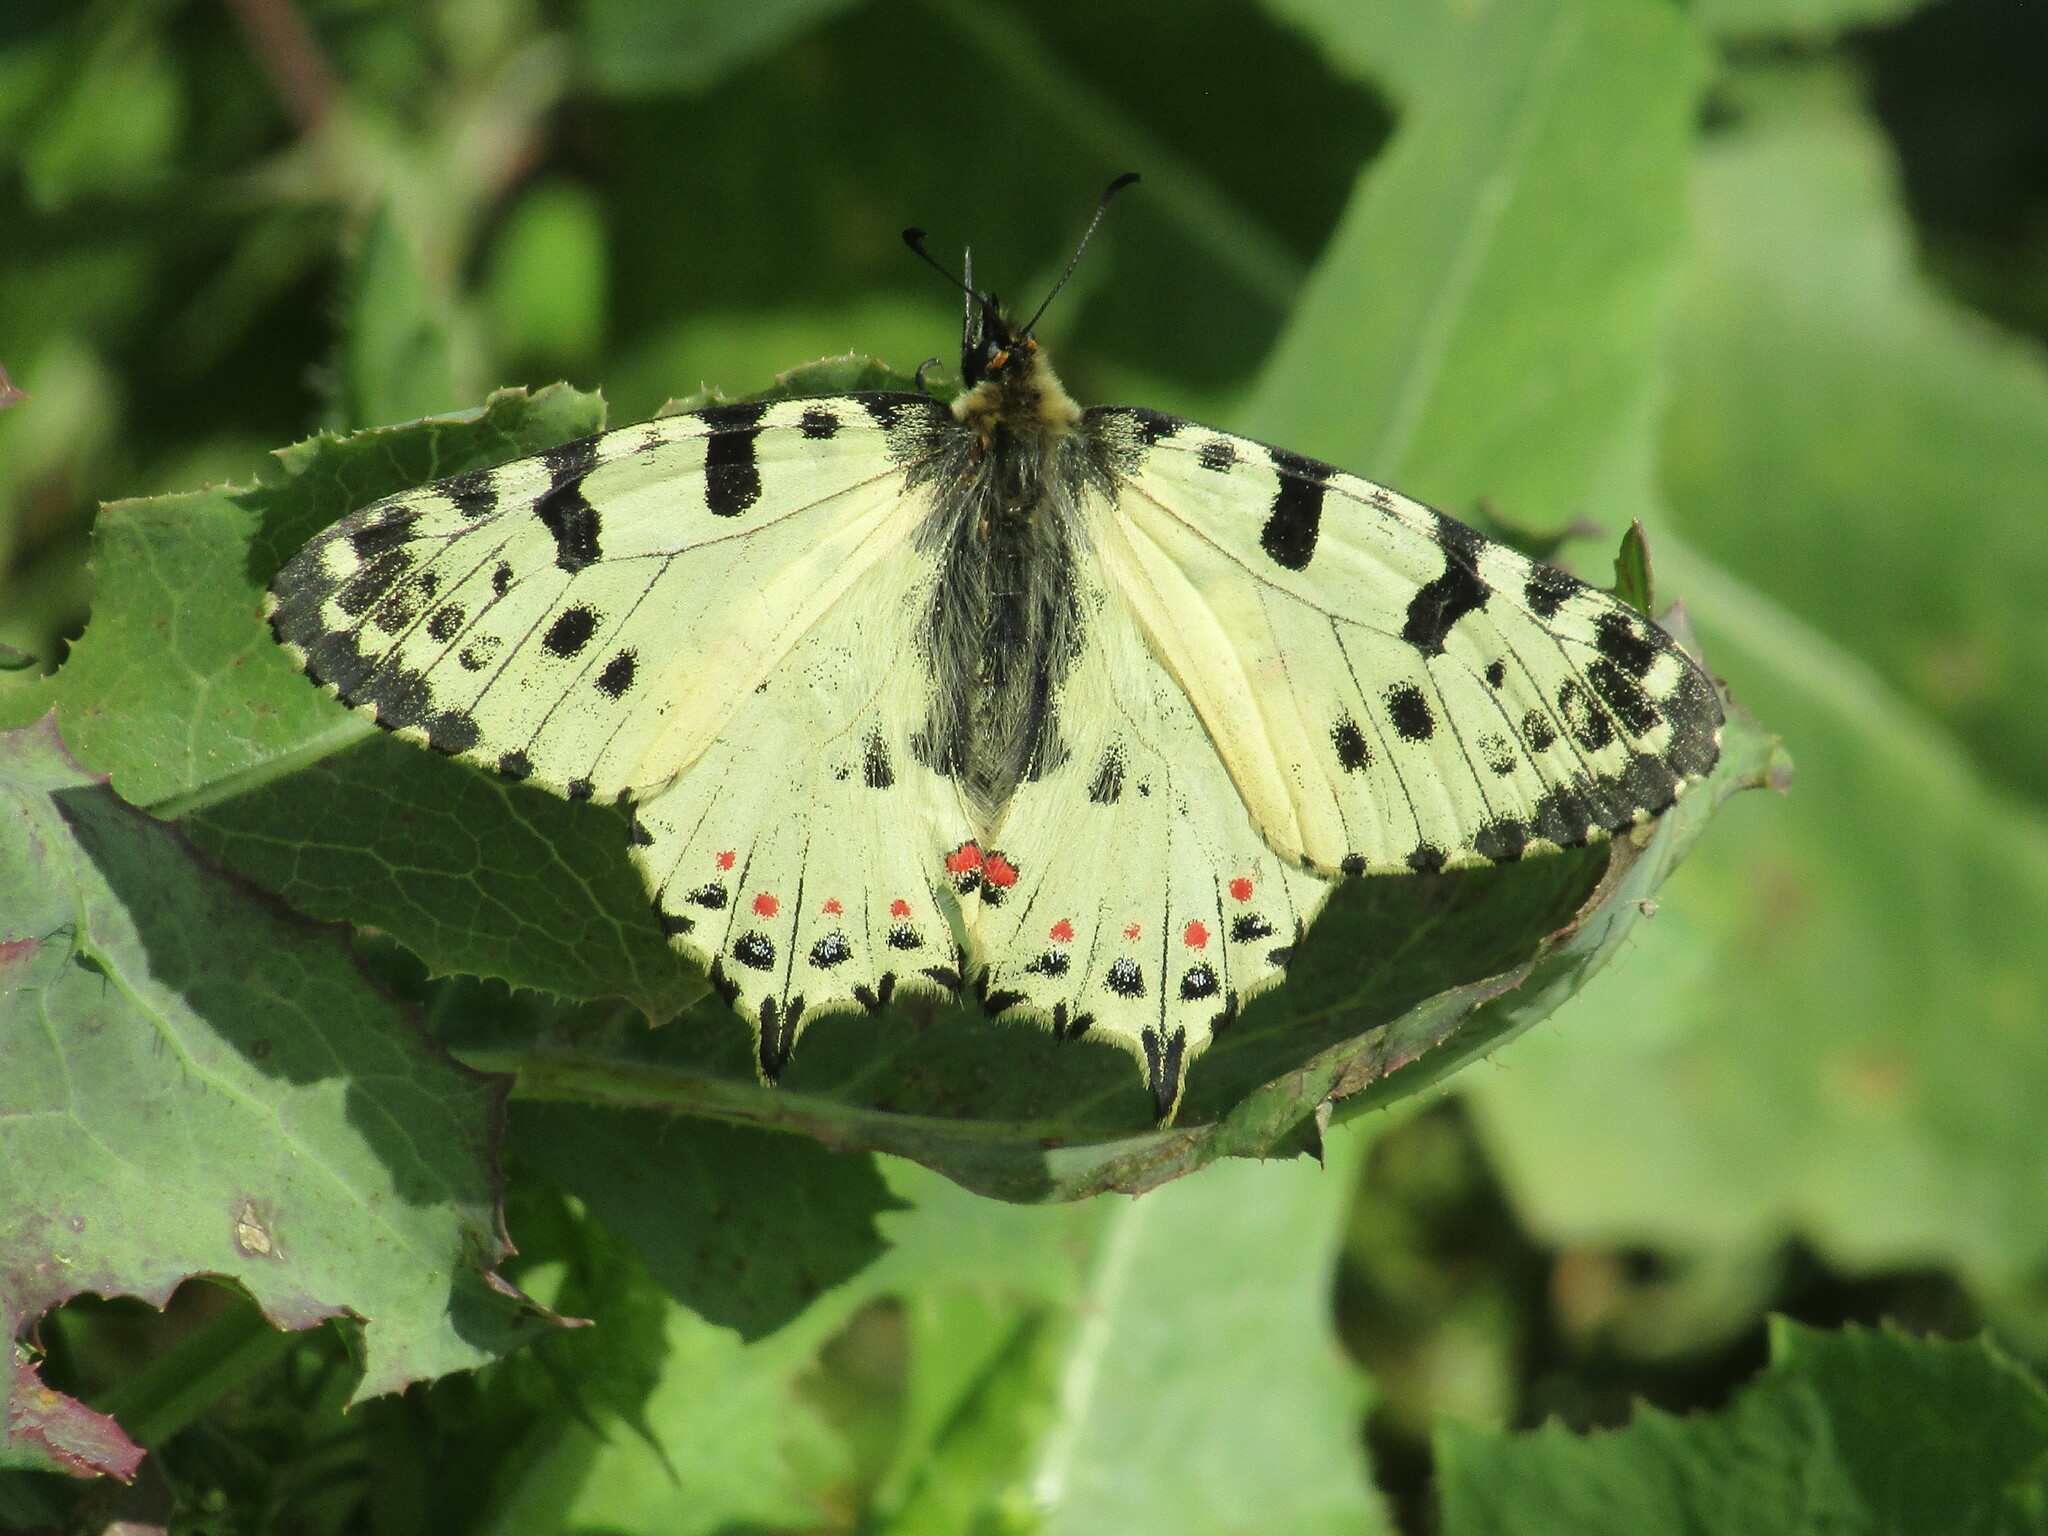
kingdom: Animalia
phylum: Arthropoda
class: Insecta
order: Lepidoptera
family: Papilionidae
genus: Zerynthia
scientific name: Zerynthia cerisy
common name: Eastern festoon
